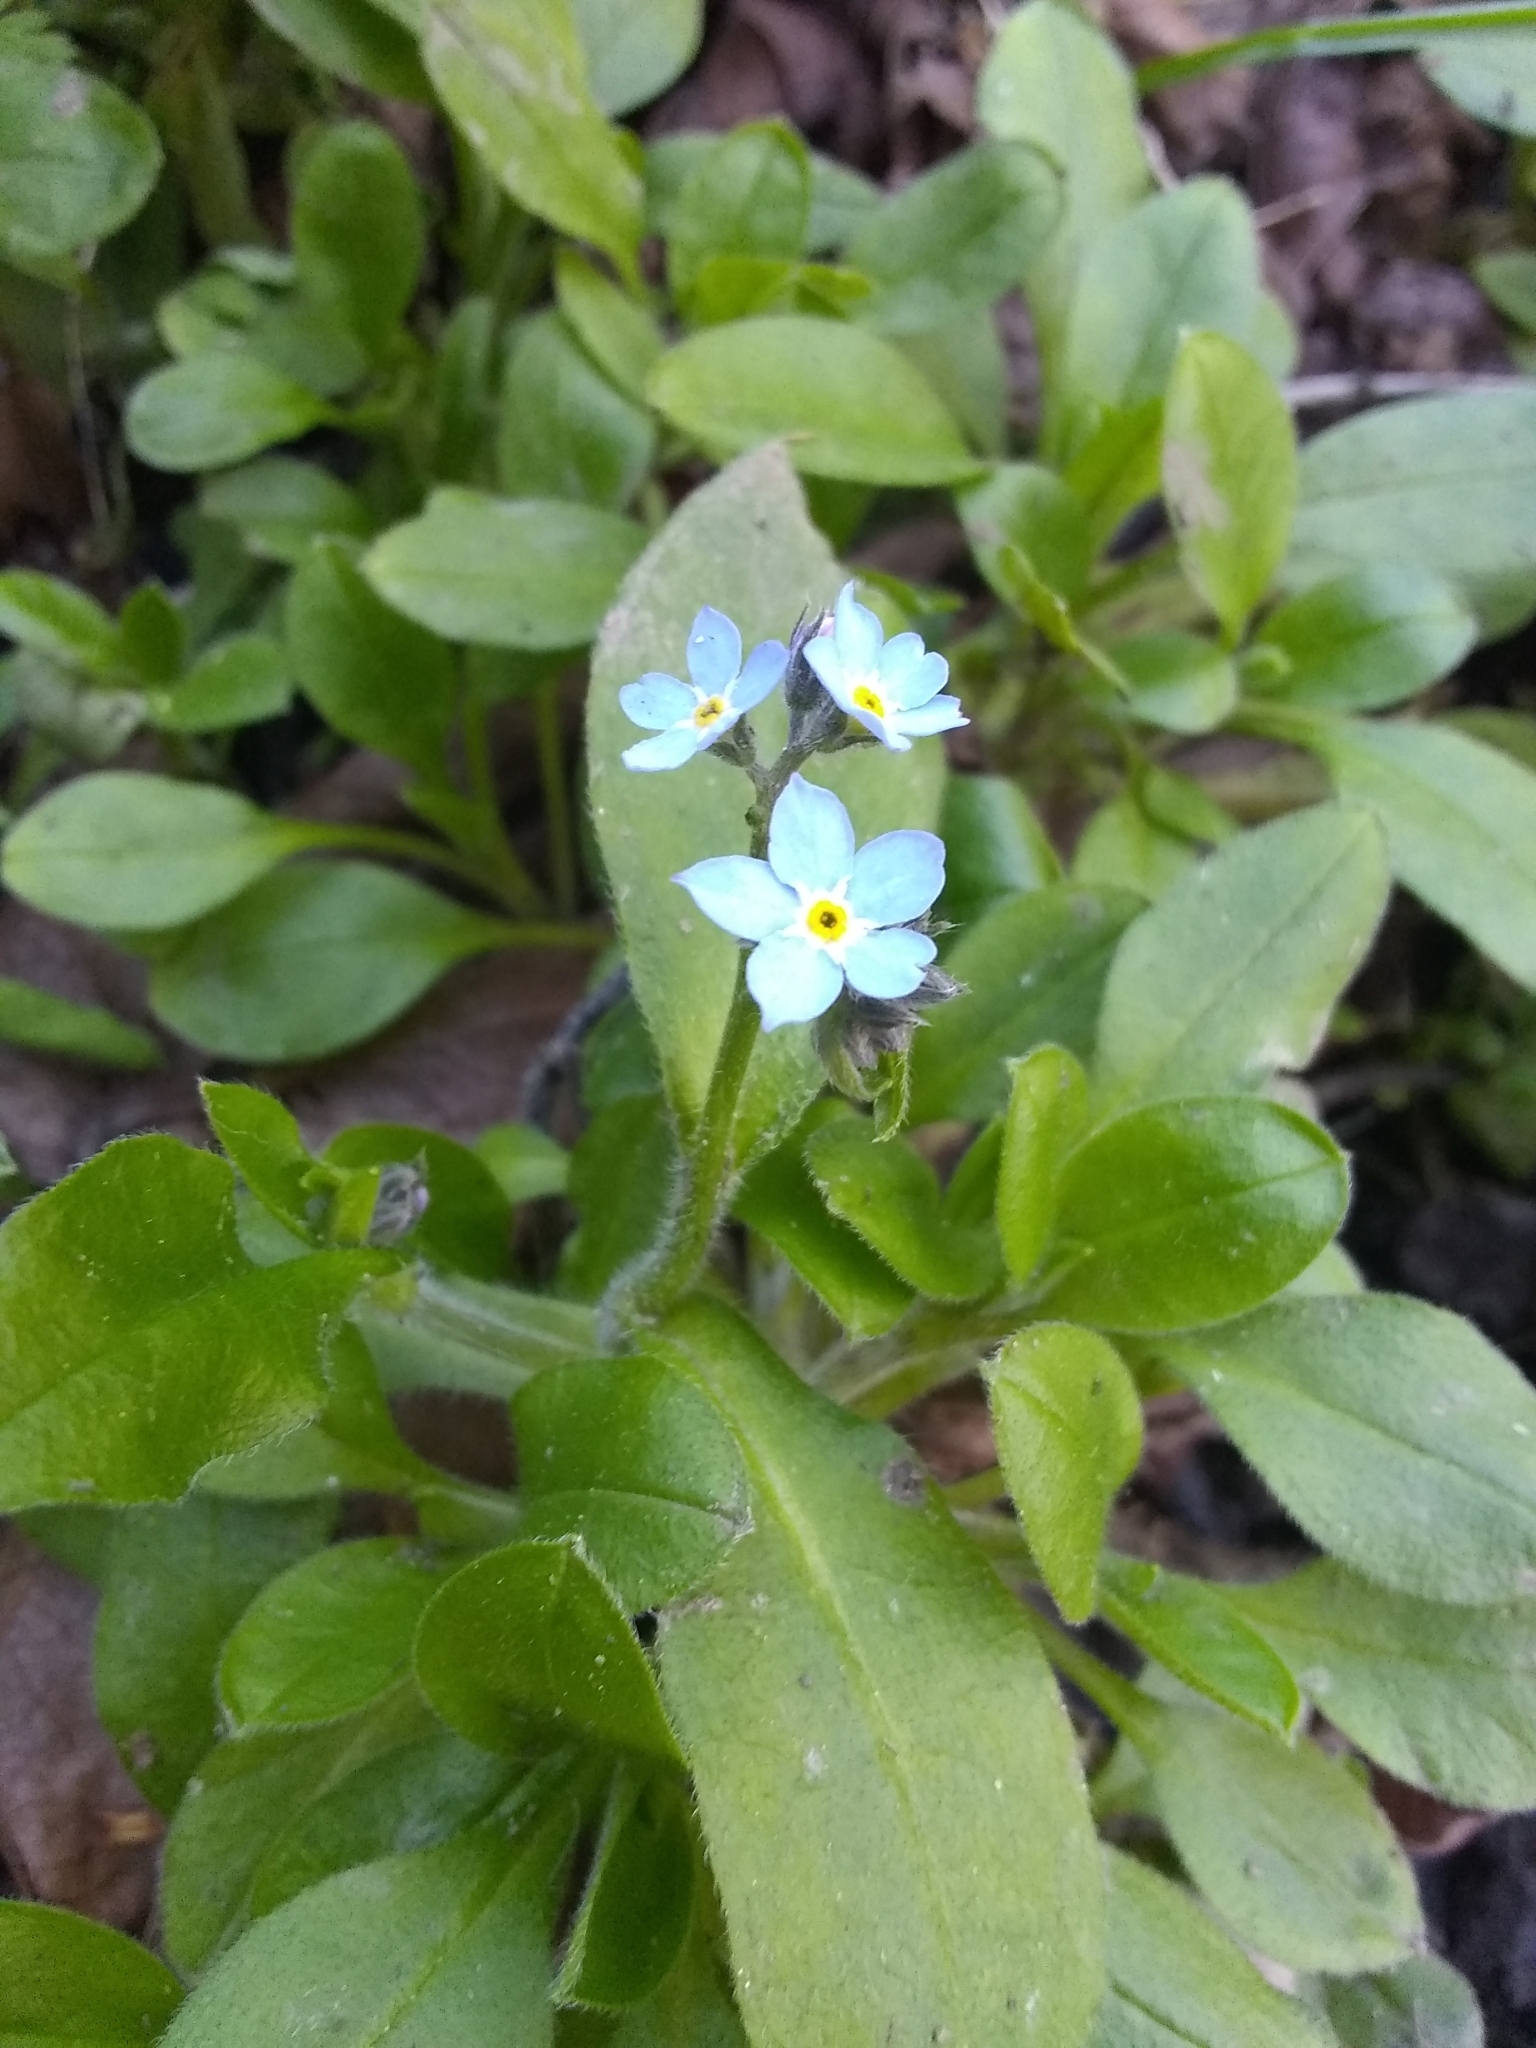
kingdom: Plantae
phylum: Tracheophyta
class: Magnoliopsida
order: Boraginales
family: Boraginaceae
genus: Myosotis
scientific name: Myosotis latifolia
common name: Broadleaf forget-me-not
